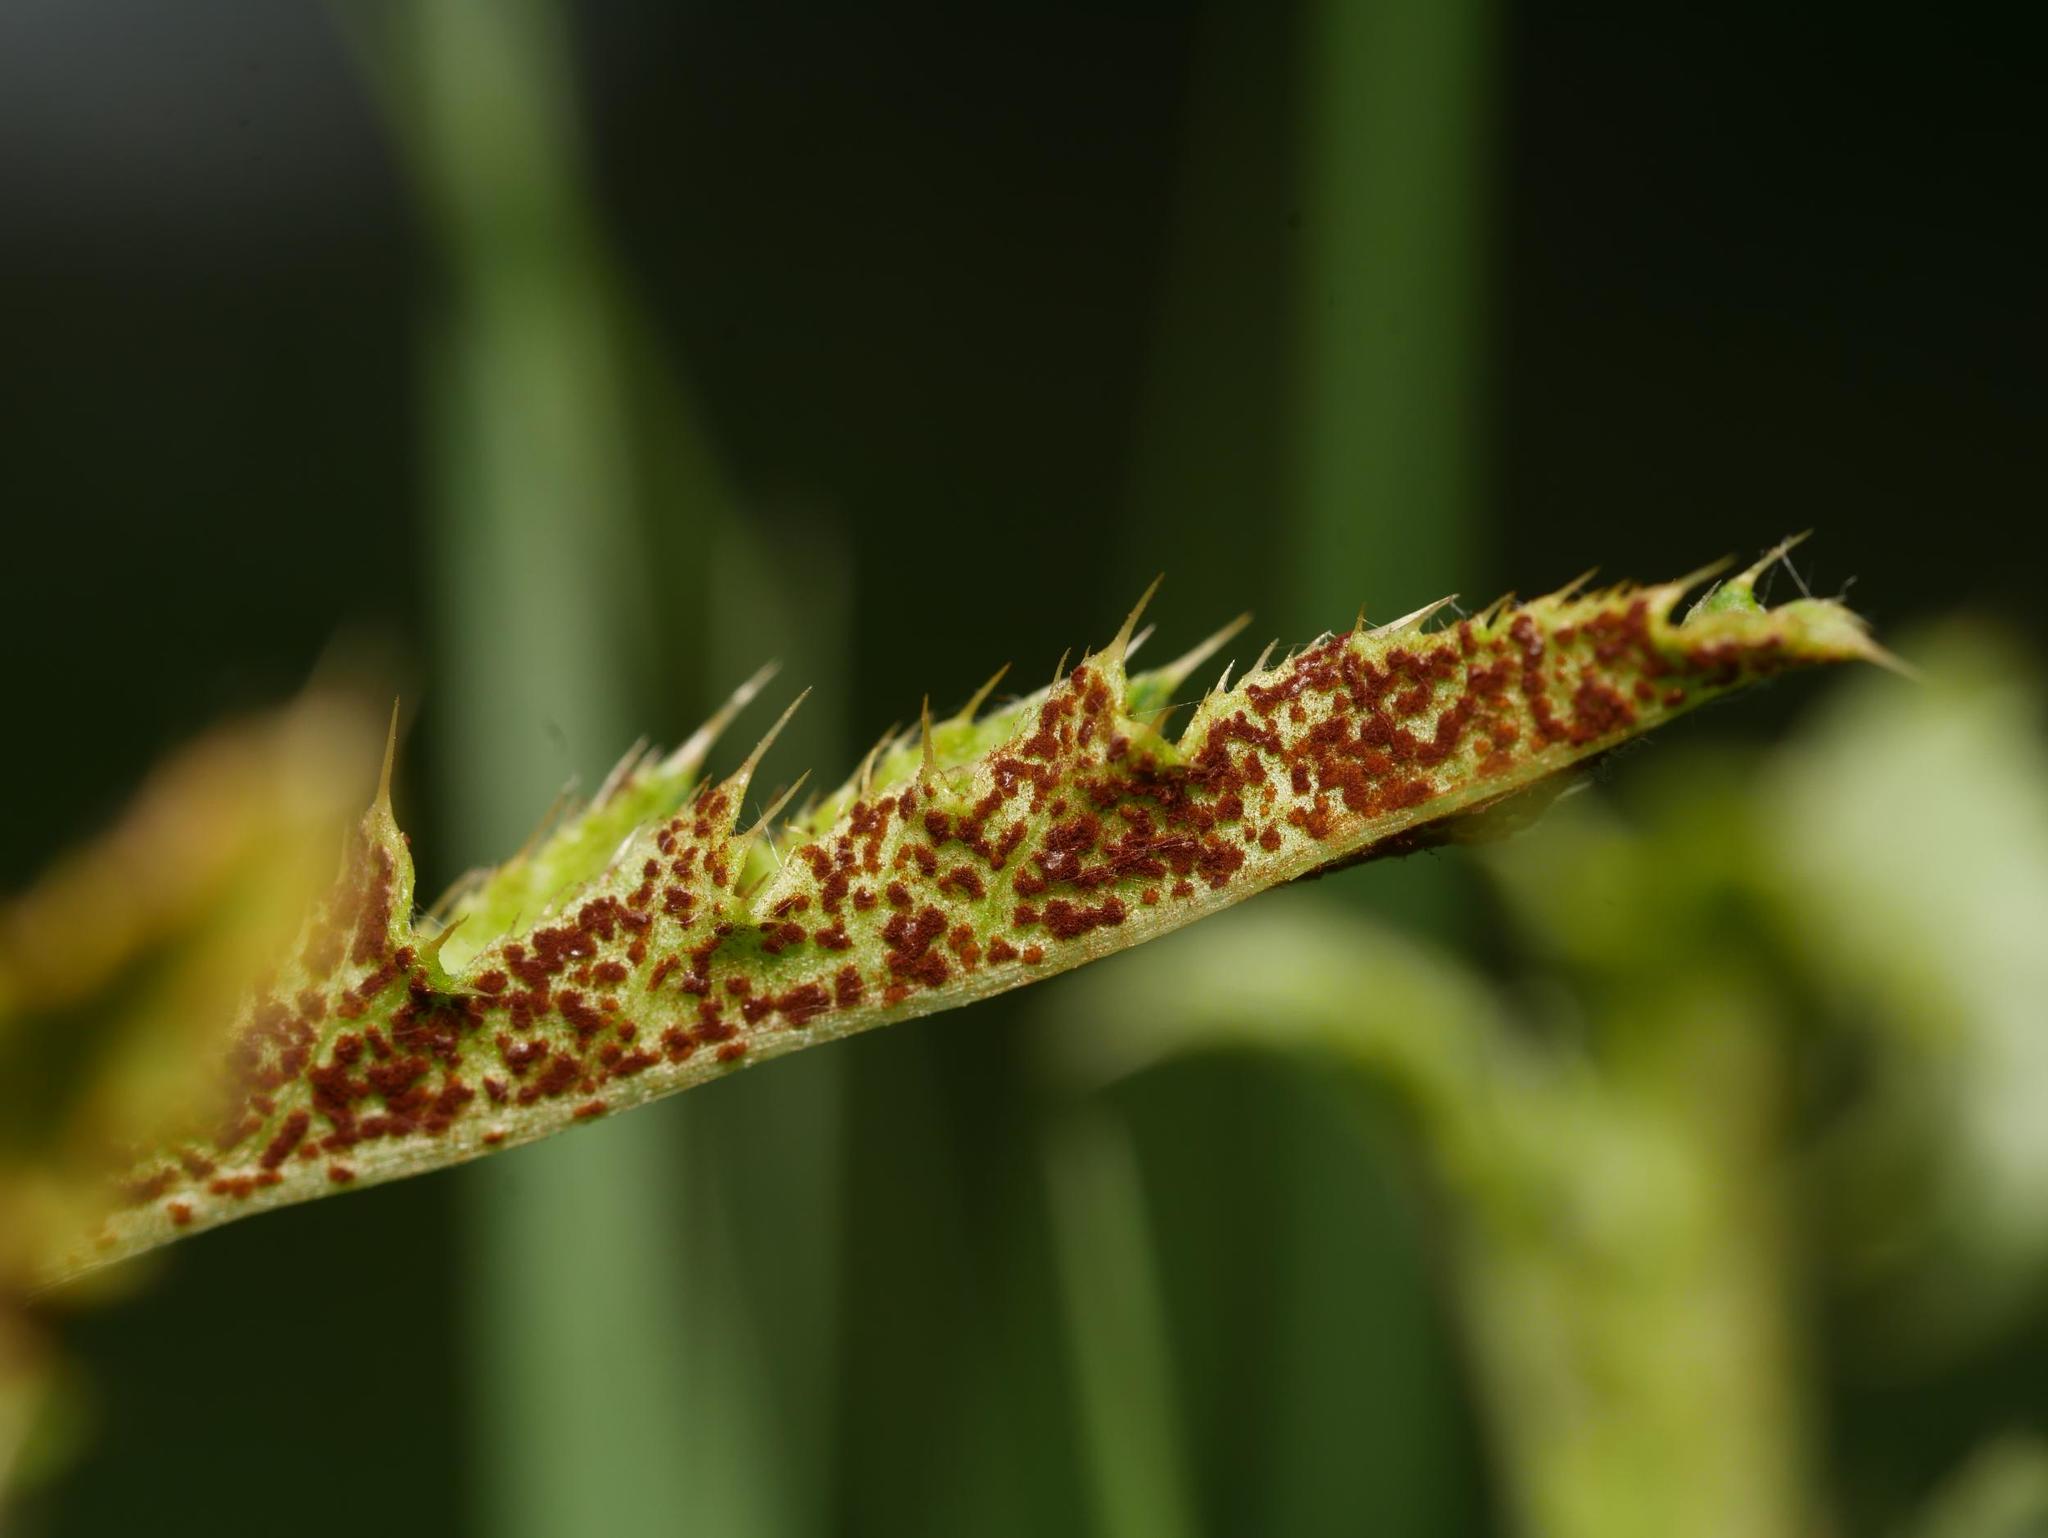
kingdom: Fungi
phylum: Basidiomycota
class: Pucciniomycetes
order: Pucciniales
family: Pucciniaceae
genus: Puccinia
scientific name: Puccinia suaveolens
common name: Thistle rust
